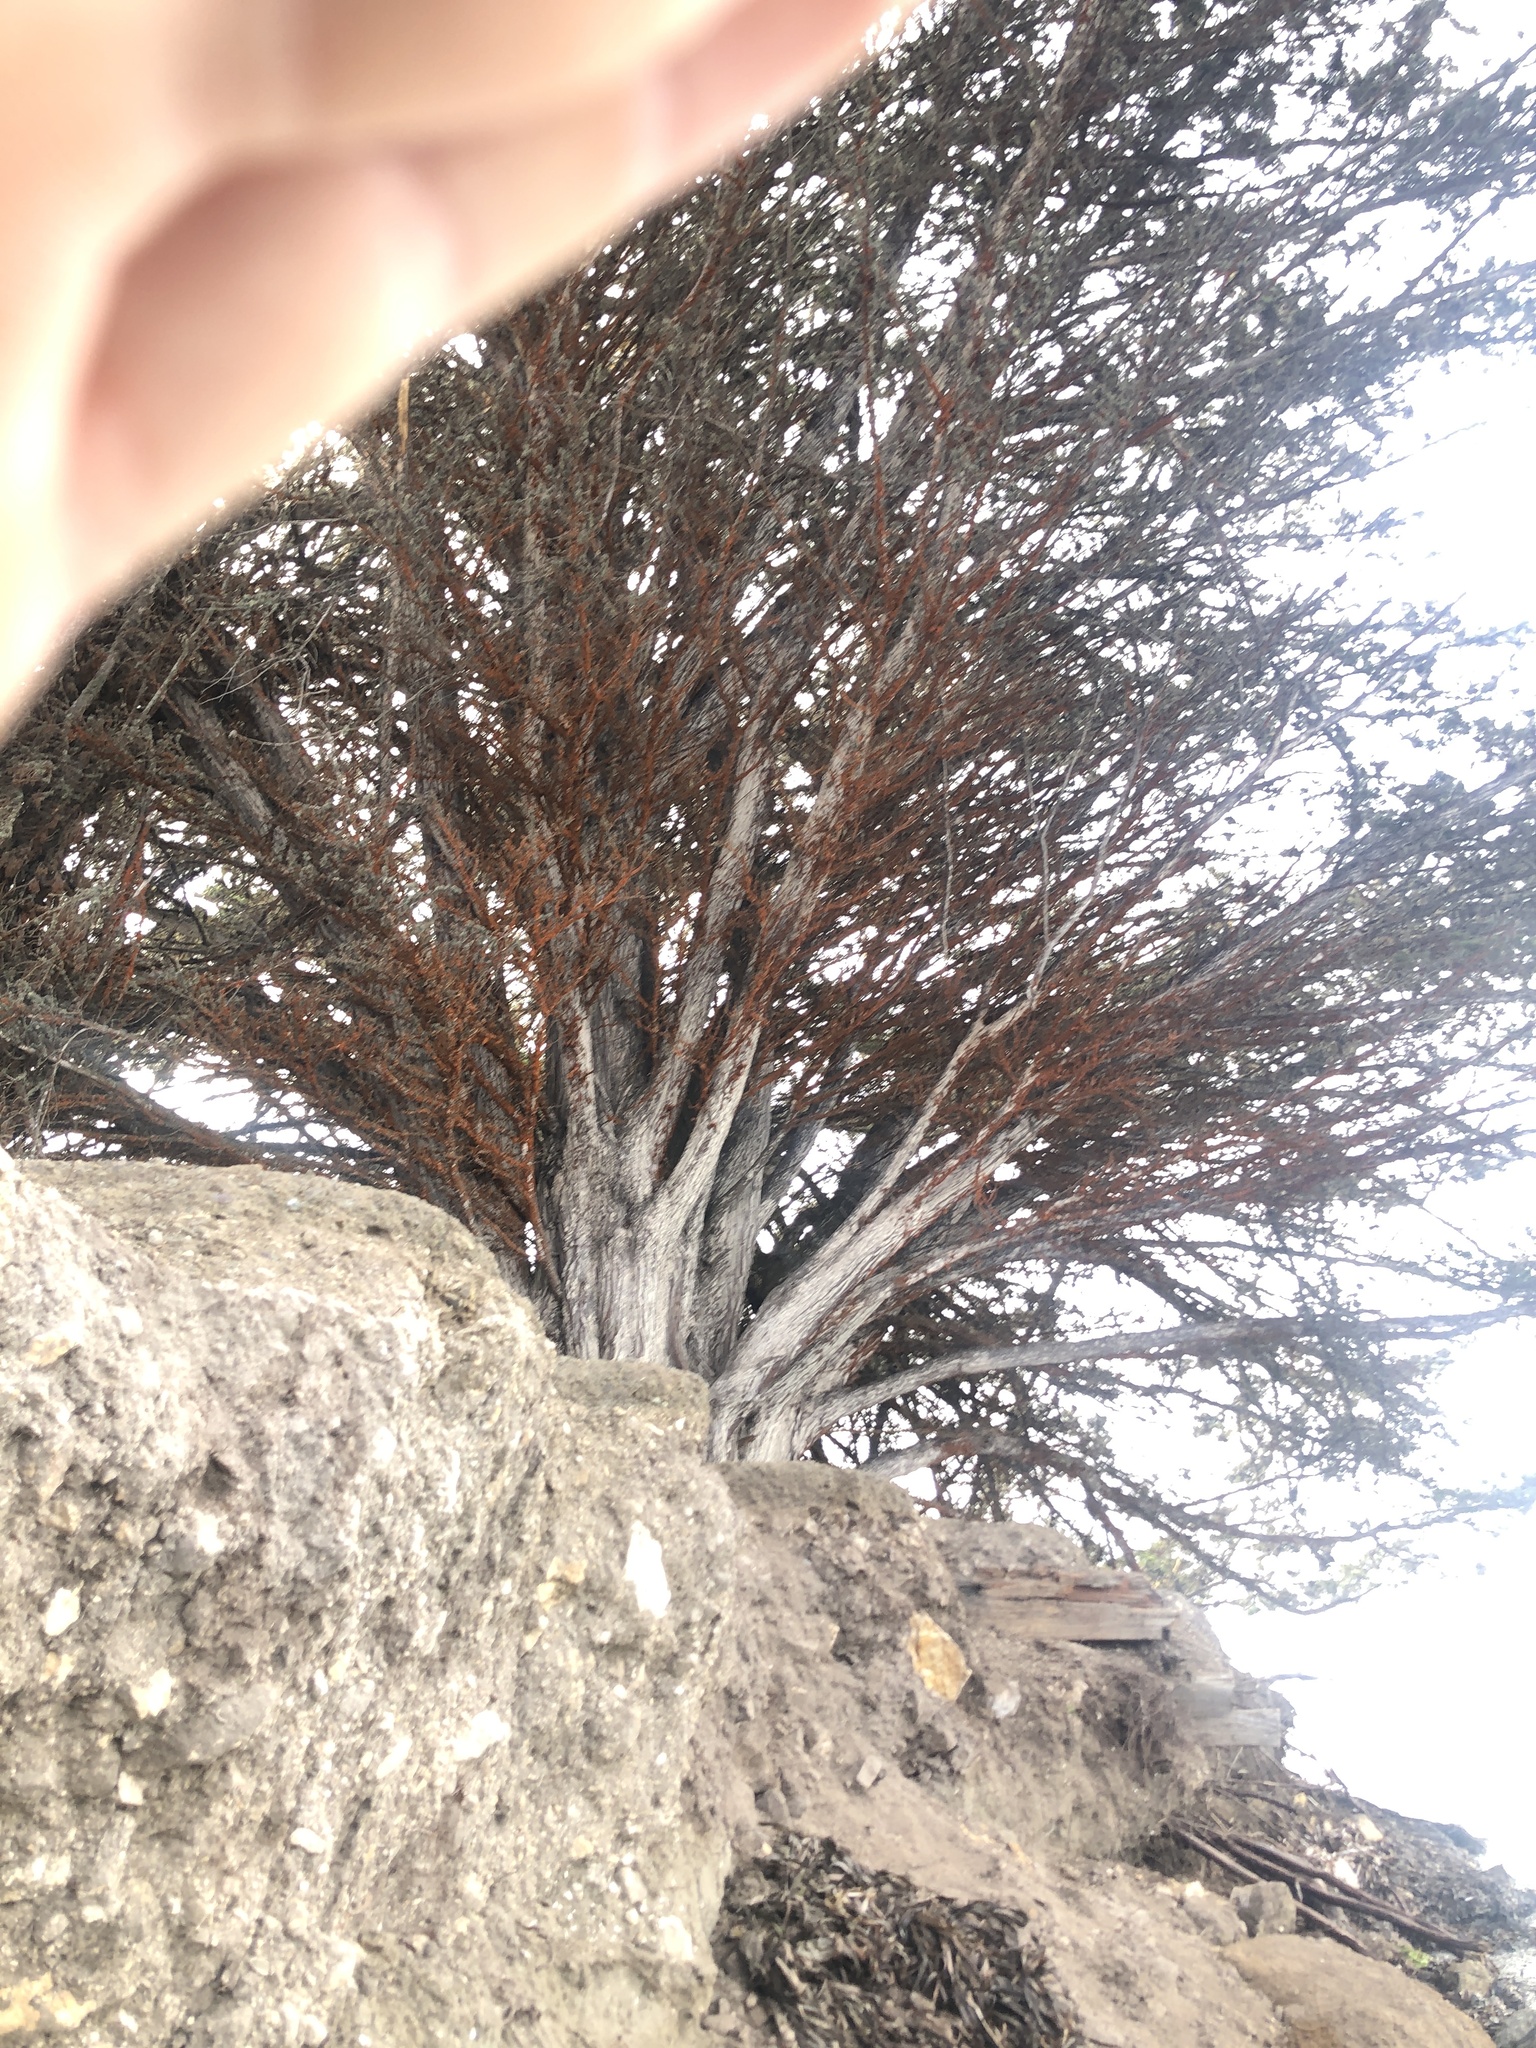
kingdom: Plantae
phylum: Chlorophyta
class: Ulvophyceae
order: Trentepohliales
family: Trentepohliaceae
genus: Trentepohlia
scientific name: Trentepohlia aurea
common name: Orange rock hair
